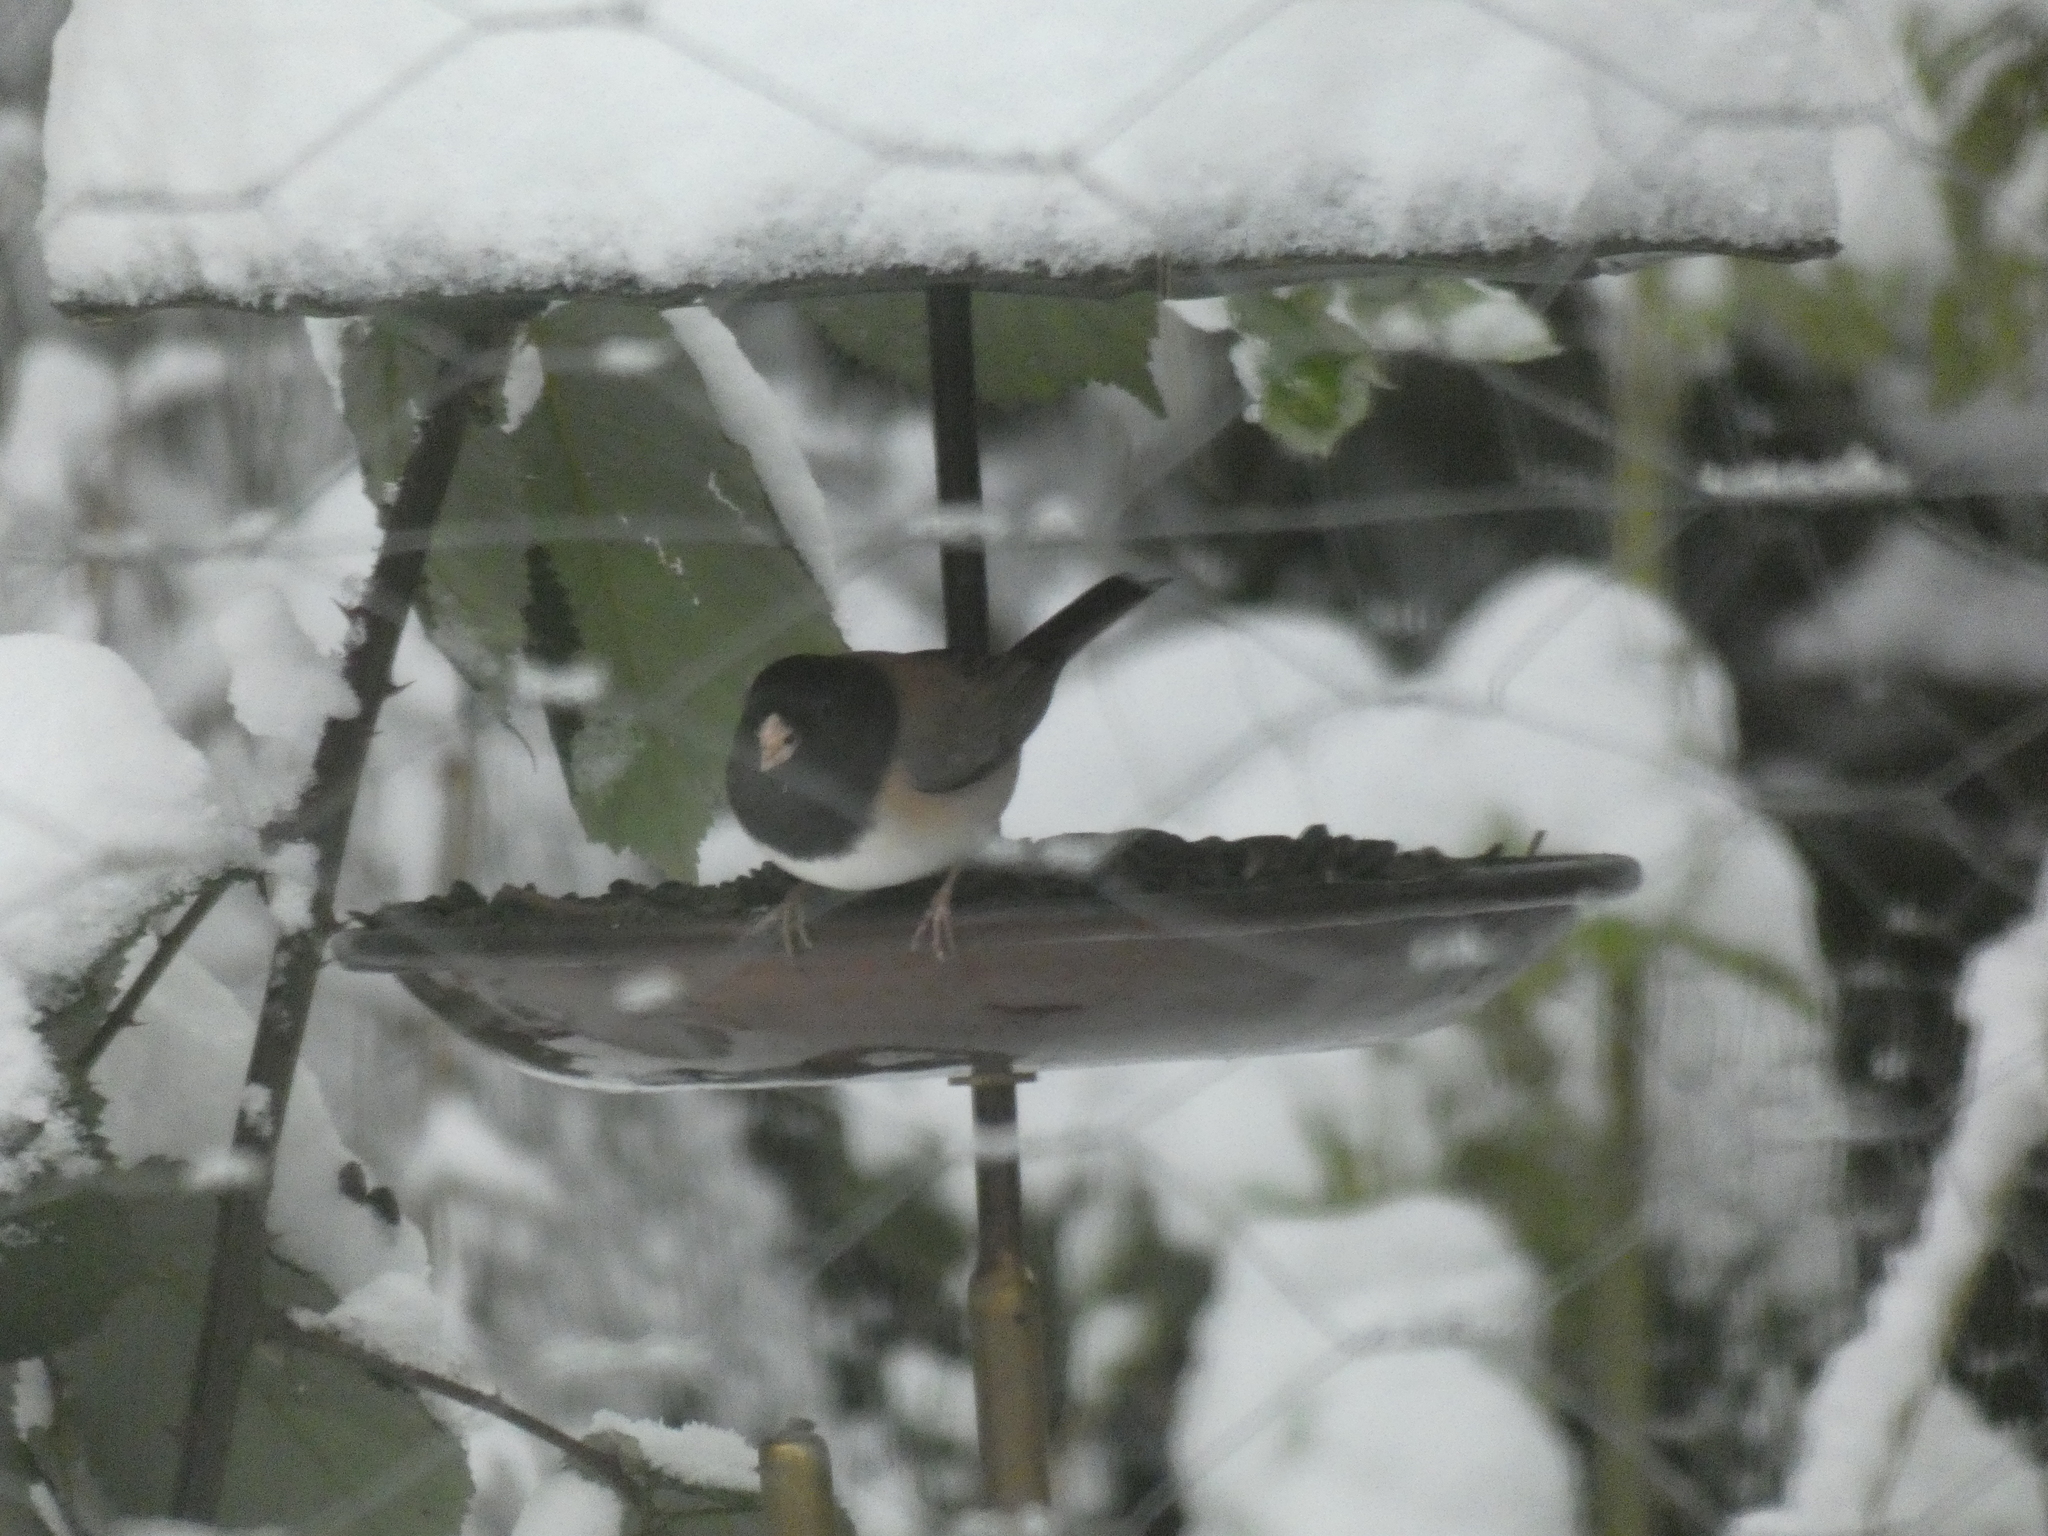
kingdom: Animalia
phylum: Chordata
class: Aves
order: Passeriformes
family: Passerellidae
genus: Junco
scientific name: Junco hyemalis
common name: Dark-eyed junco
